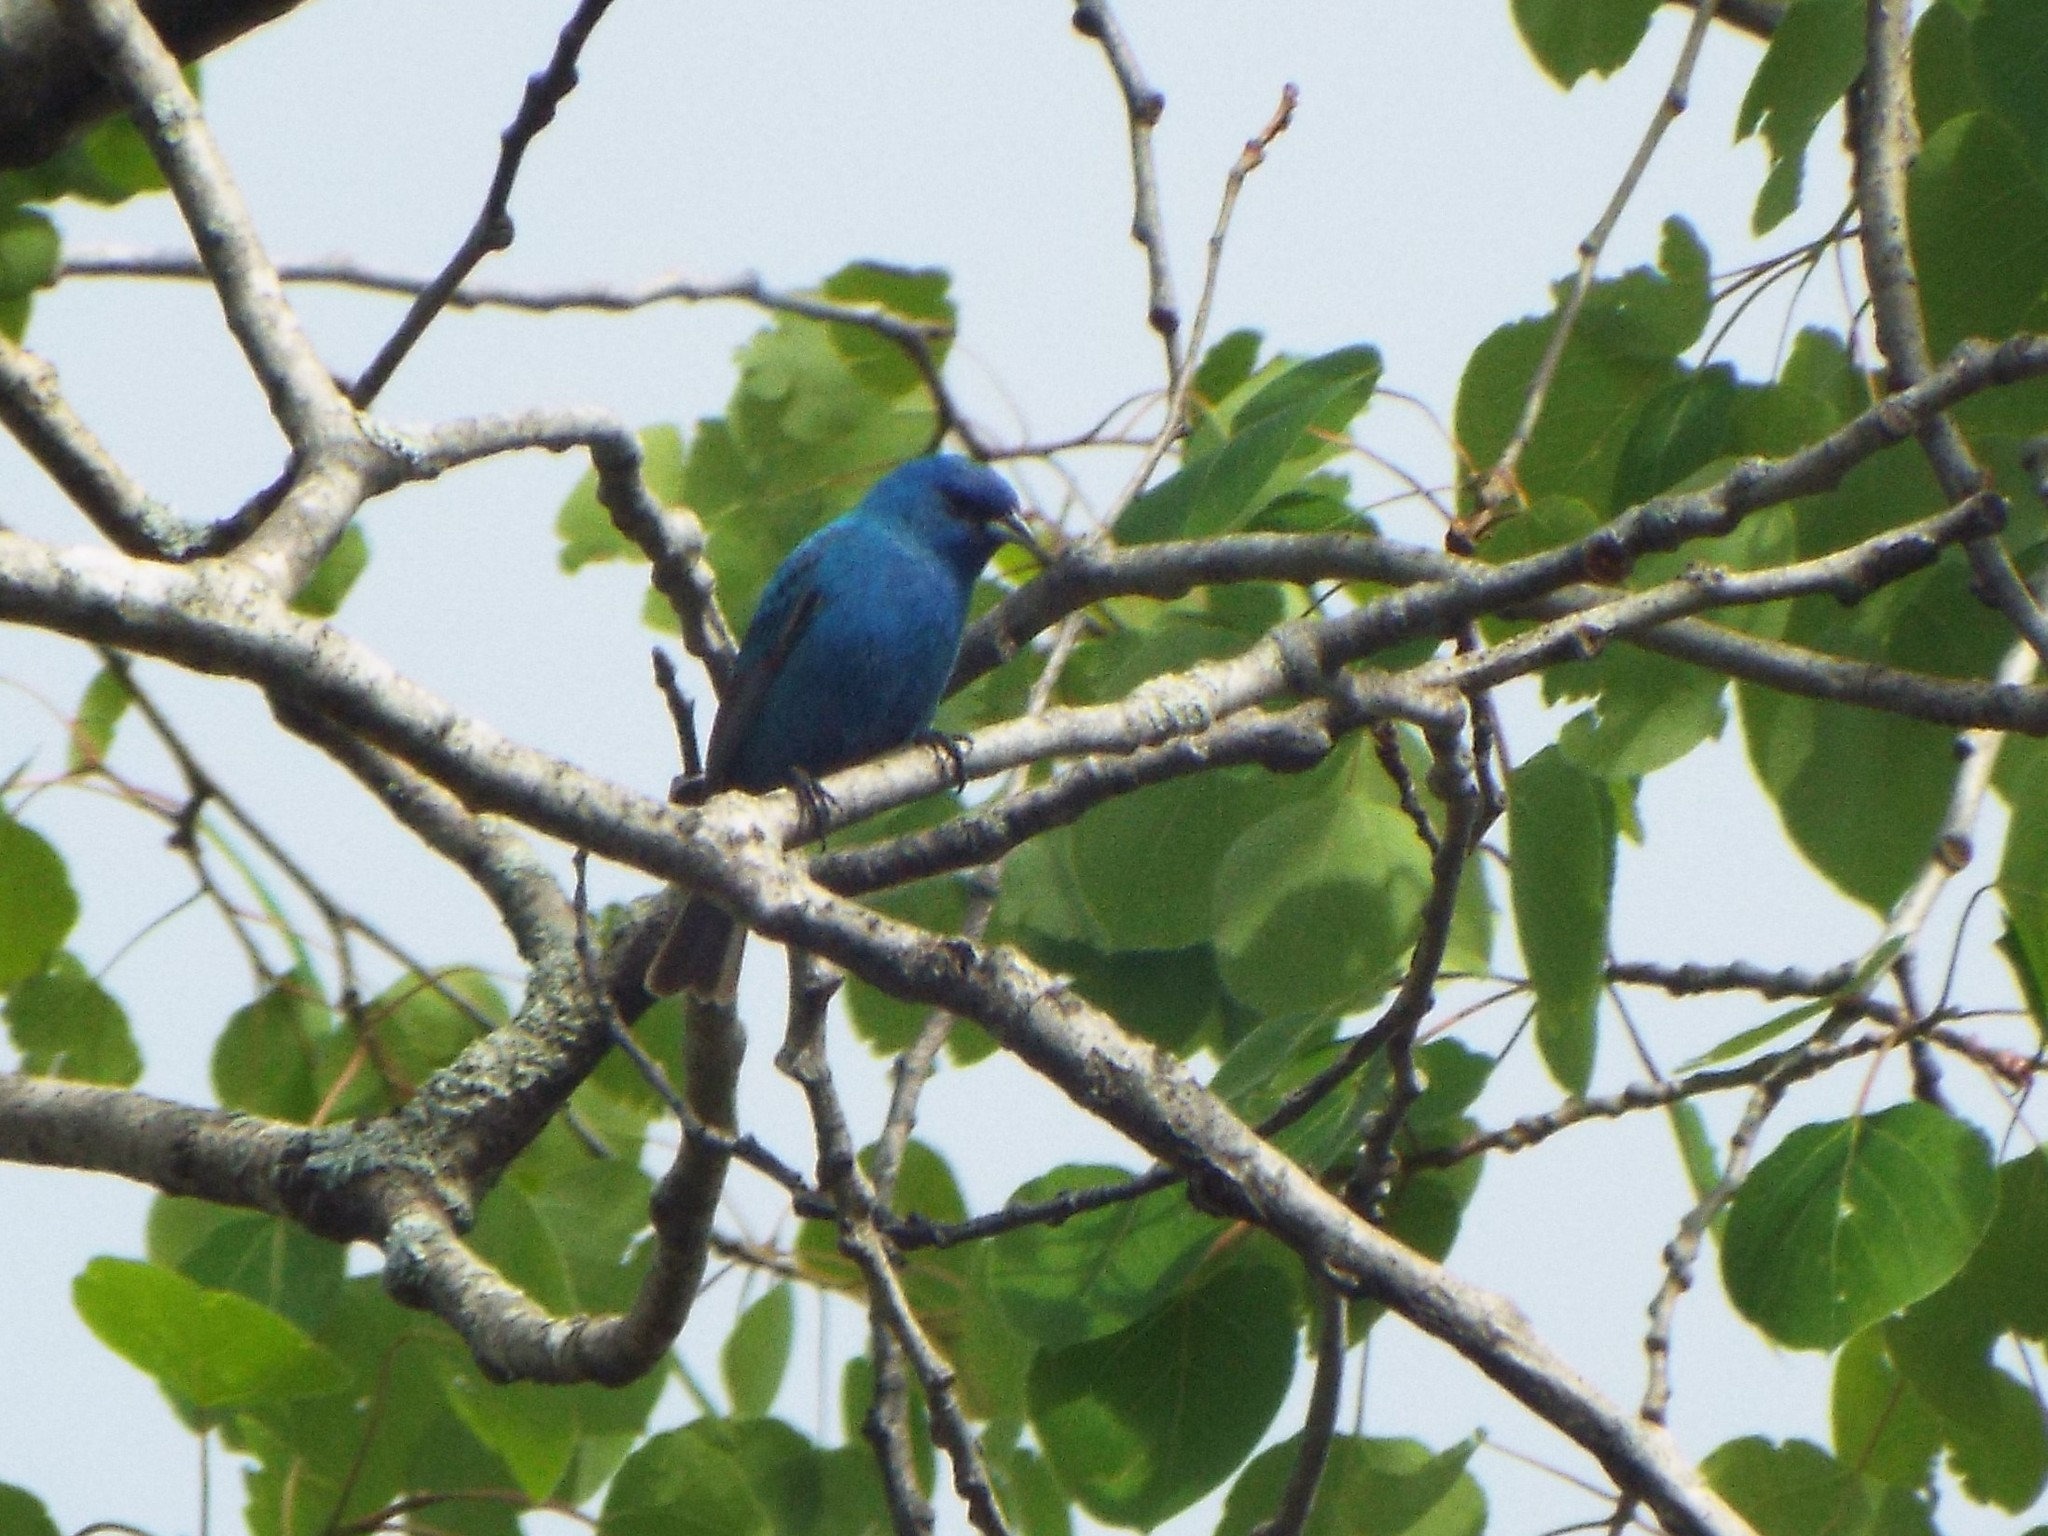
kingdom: Animalia
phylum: Chordata
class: Aves
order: Passeriformes
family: Cardinalidae
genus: Passerina
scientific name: Passerina cyanea
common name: Indigo bunting
